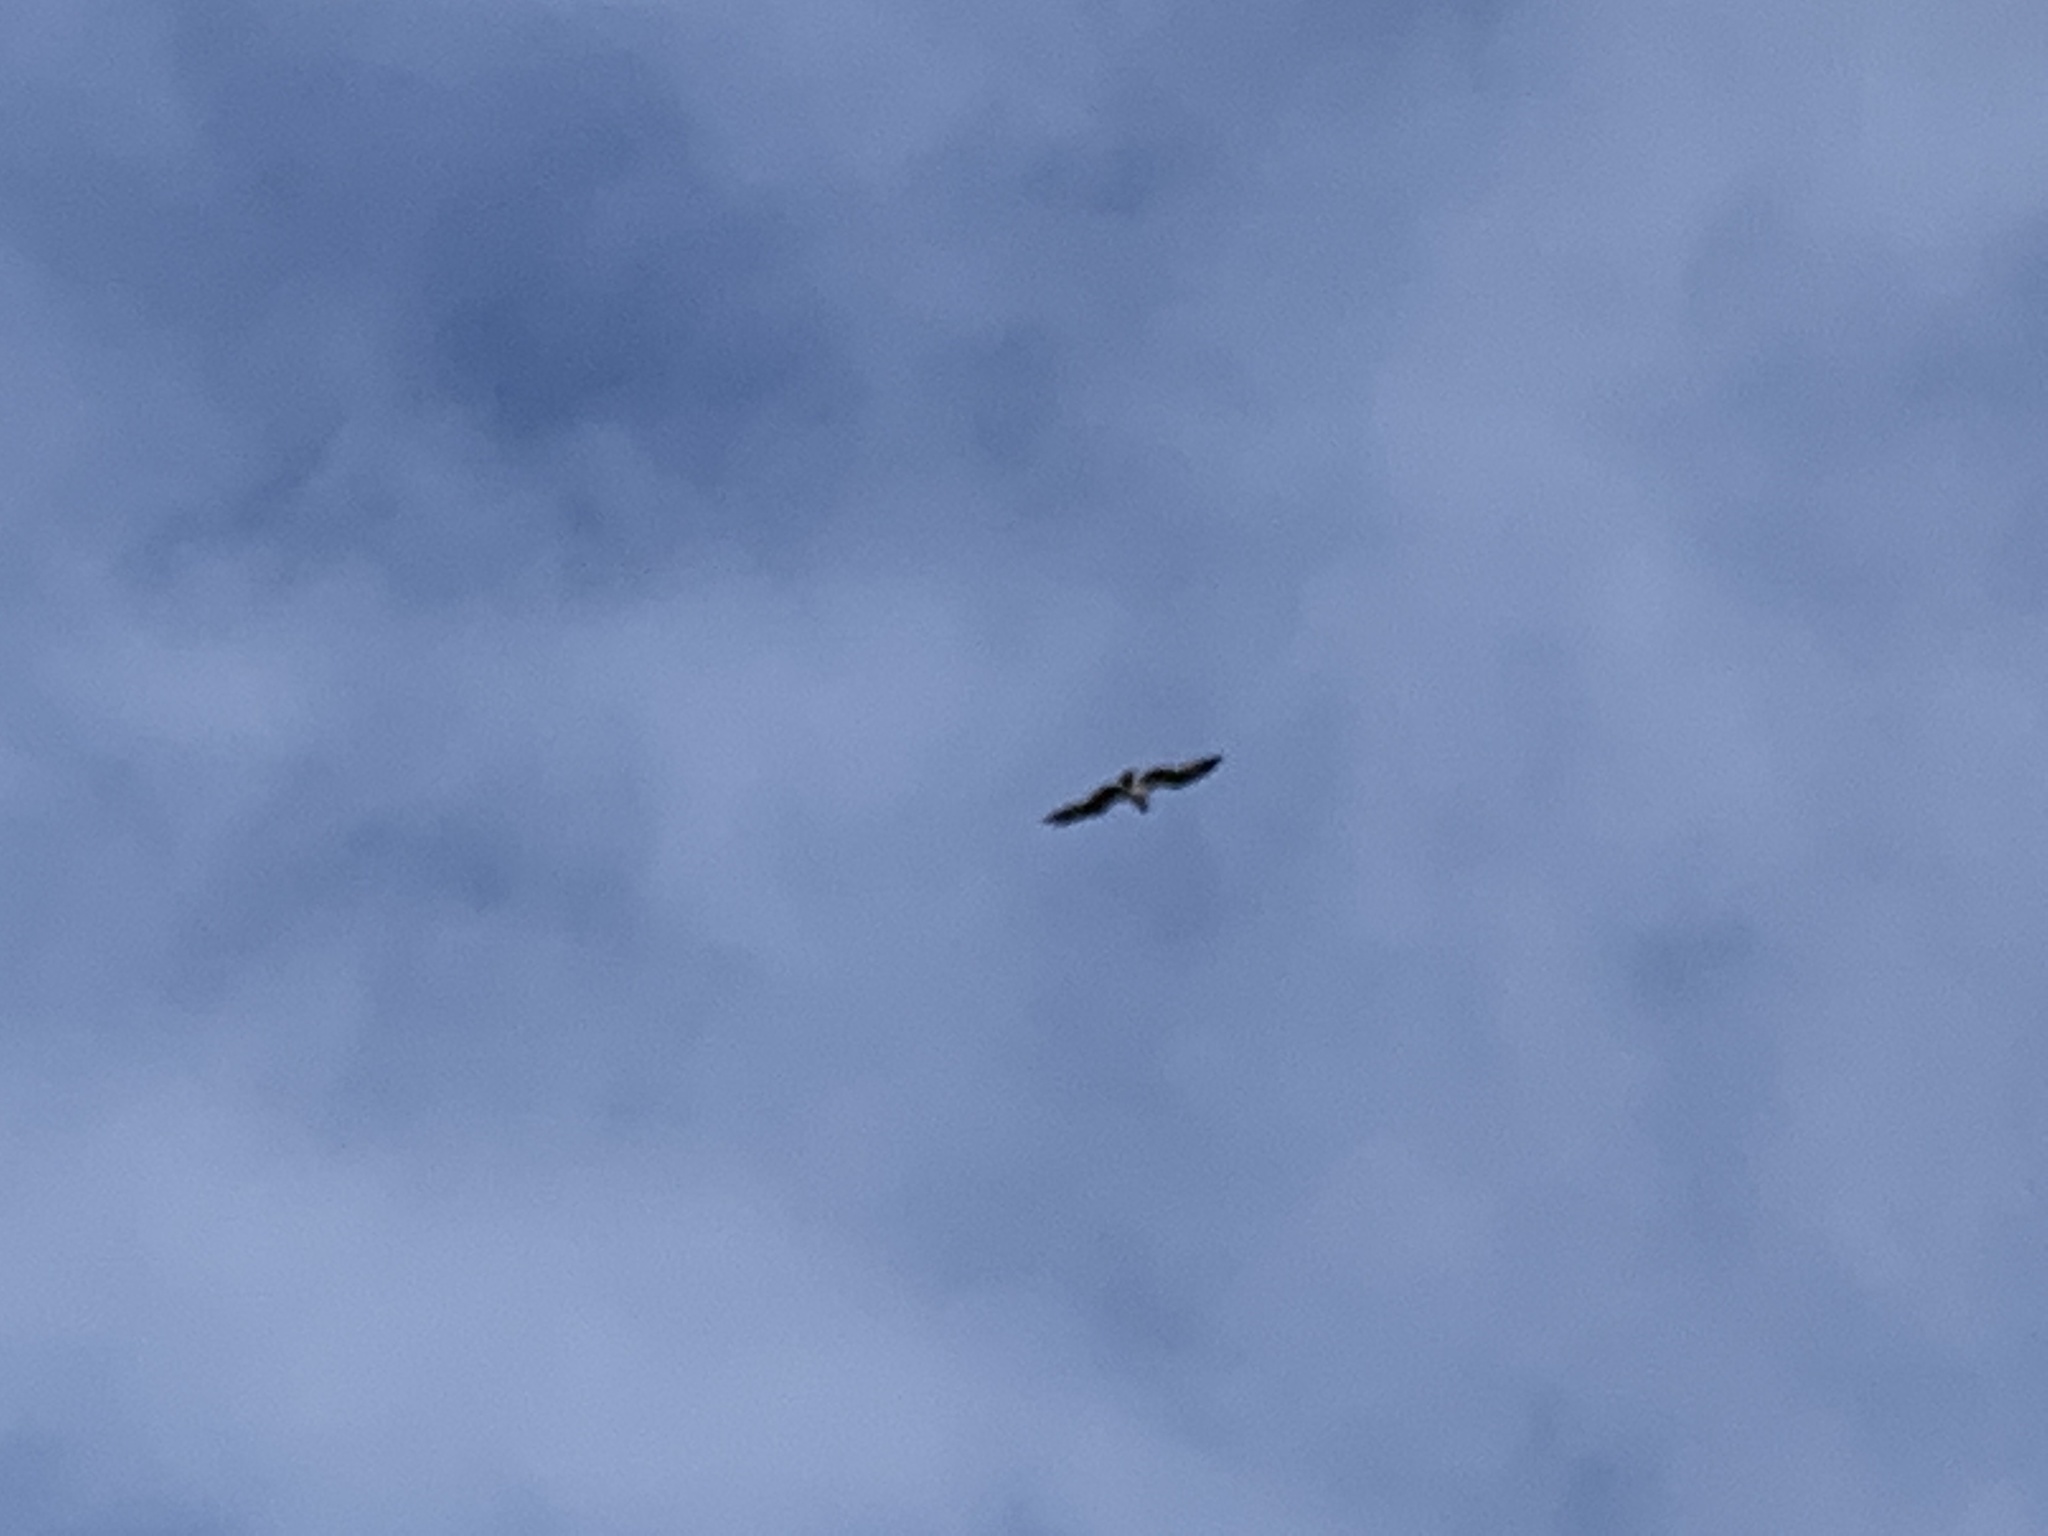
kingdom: Animalia
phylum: Chordata
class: Aves
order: Accipitriformes
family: Pandionidae
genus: Pandion
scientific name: Pandion haliaetus
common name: Osprey
